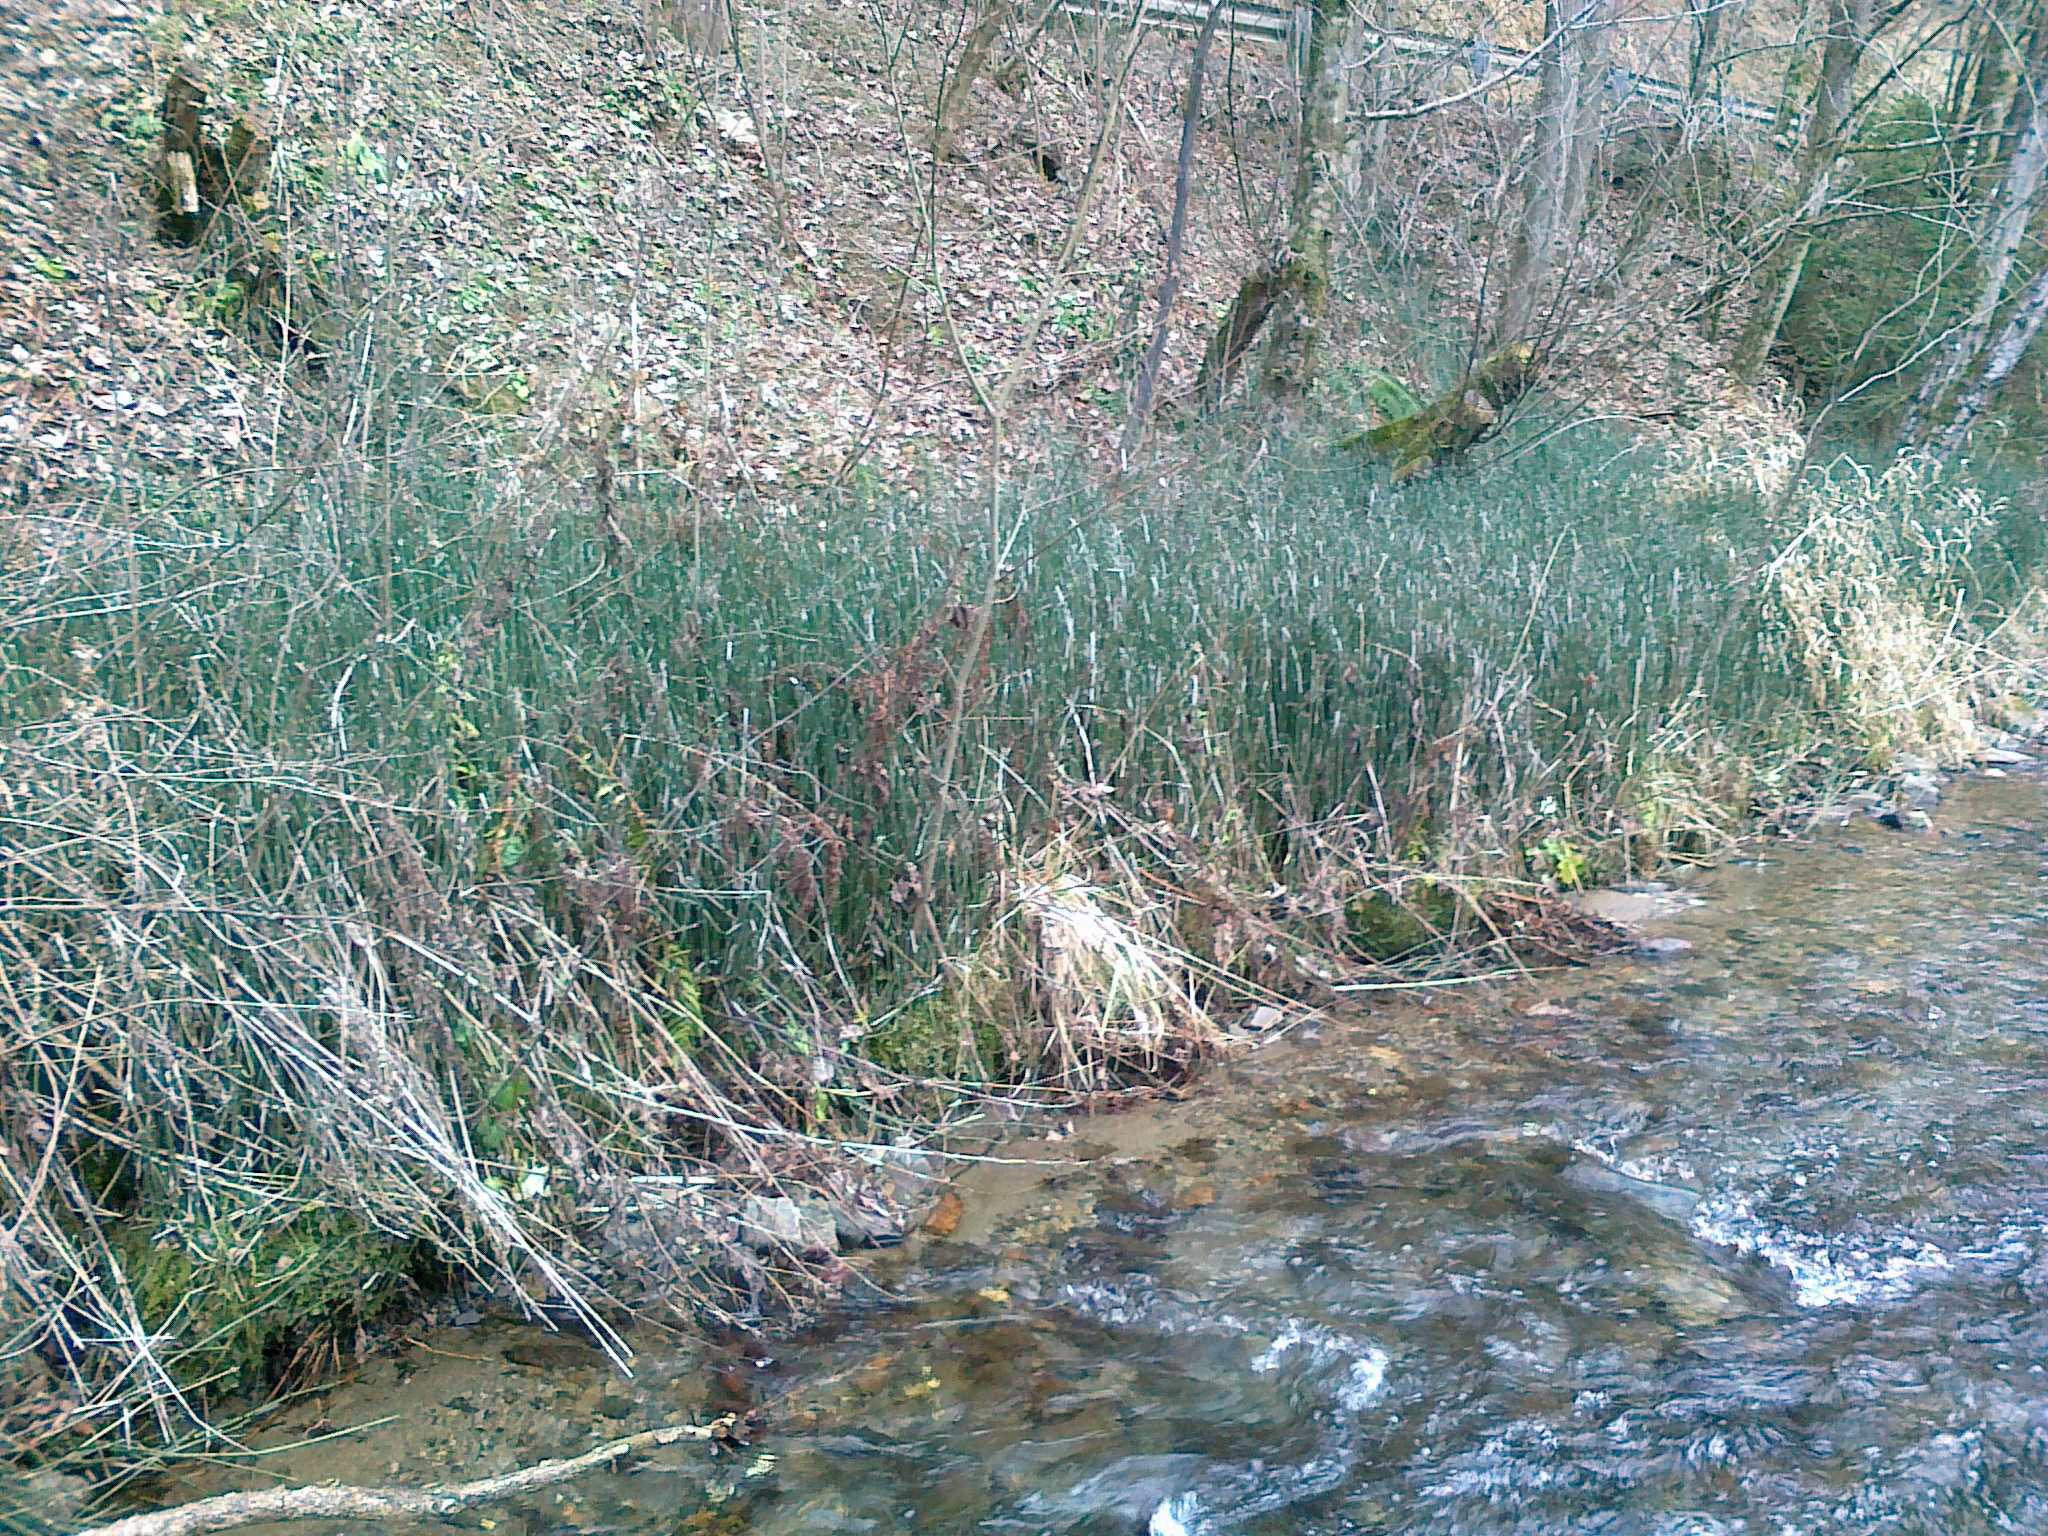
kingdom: Plantae
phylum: Tracheophyta
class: Polypodiopsida
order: Equisetales
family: Equisetaceae
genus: Equisetum
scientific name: Equisetum hyemale
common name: Rough horsetail
